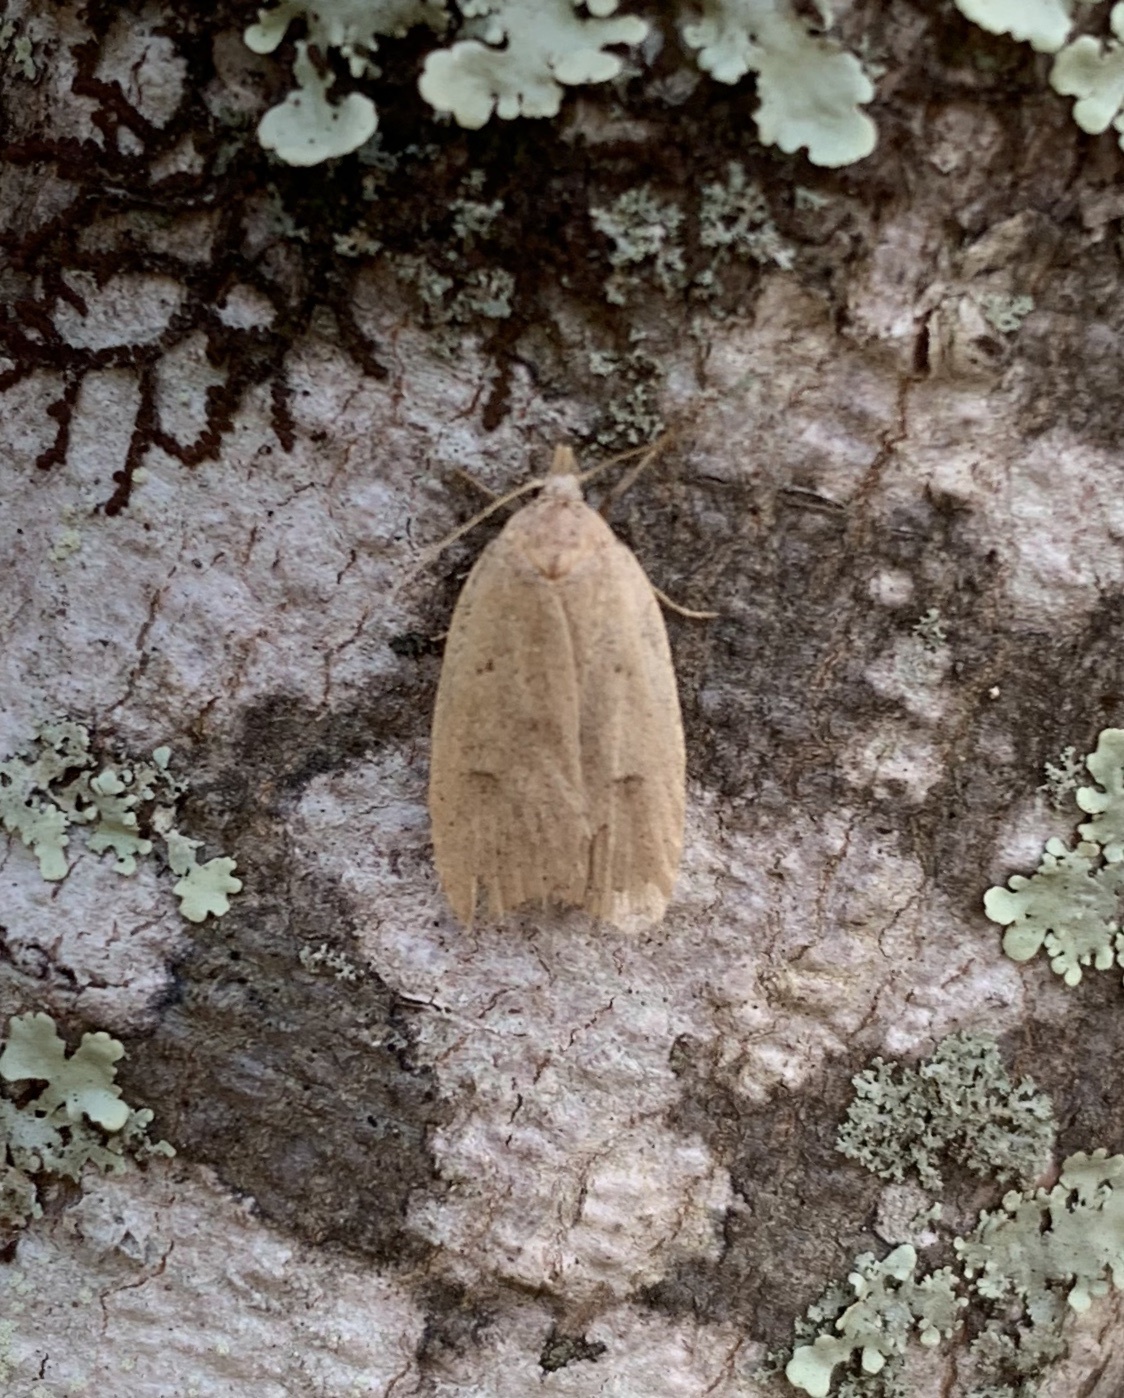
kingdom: Animalia
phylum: Arthropoda
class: Insecta
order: Lepidoptera
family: Peleopodidae
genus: Machimia
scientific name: Machimia tentoriferella
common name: Gold-striped leaftier moth
